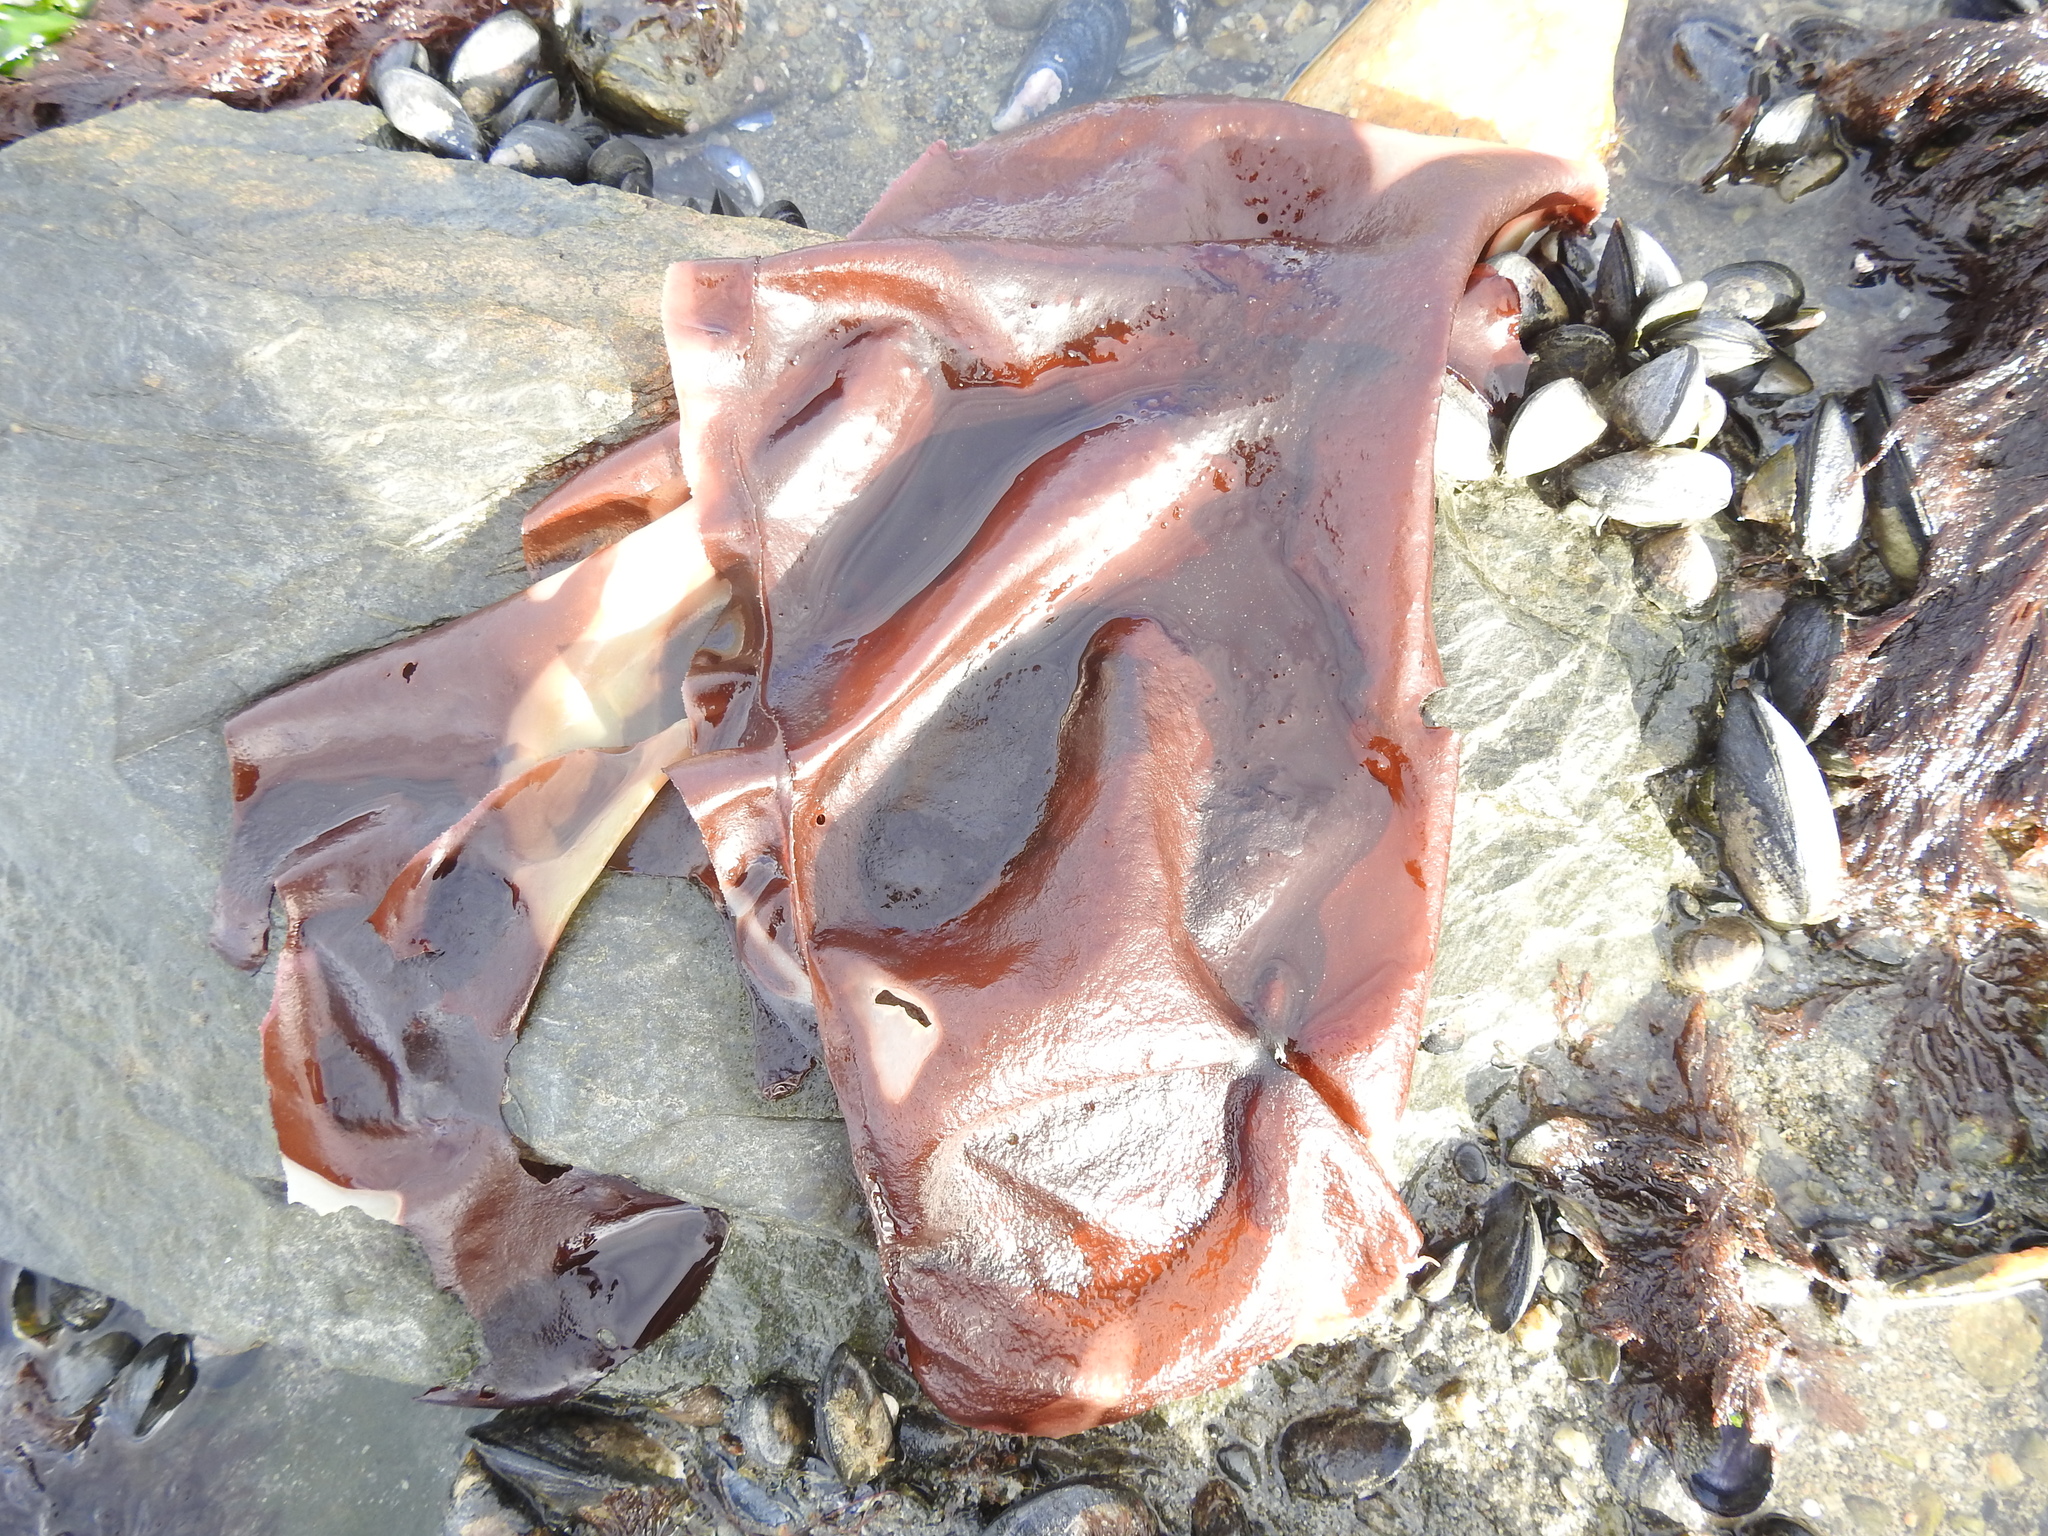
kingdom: Plantae
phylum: Rhodophyta
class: Florideophyceae
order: Gigartinales
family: Gigartinaceae
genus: Sarcothalia
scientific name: Sarcothalia
